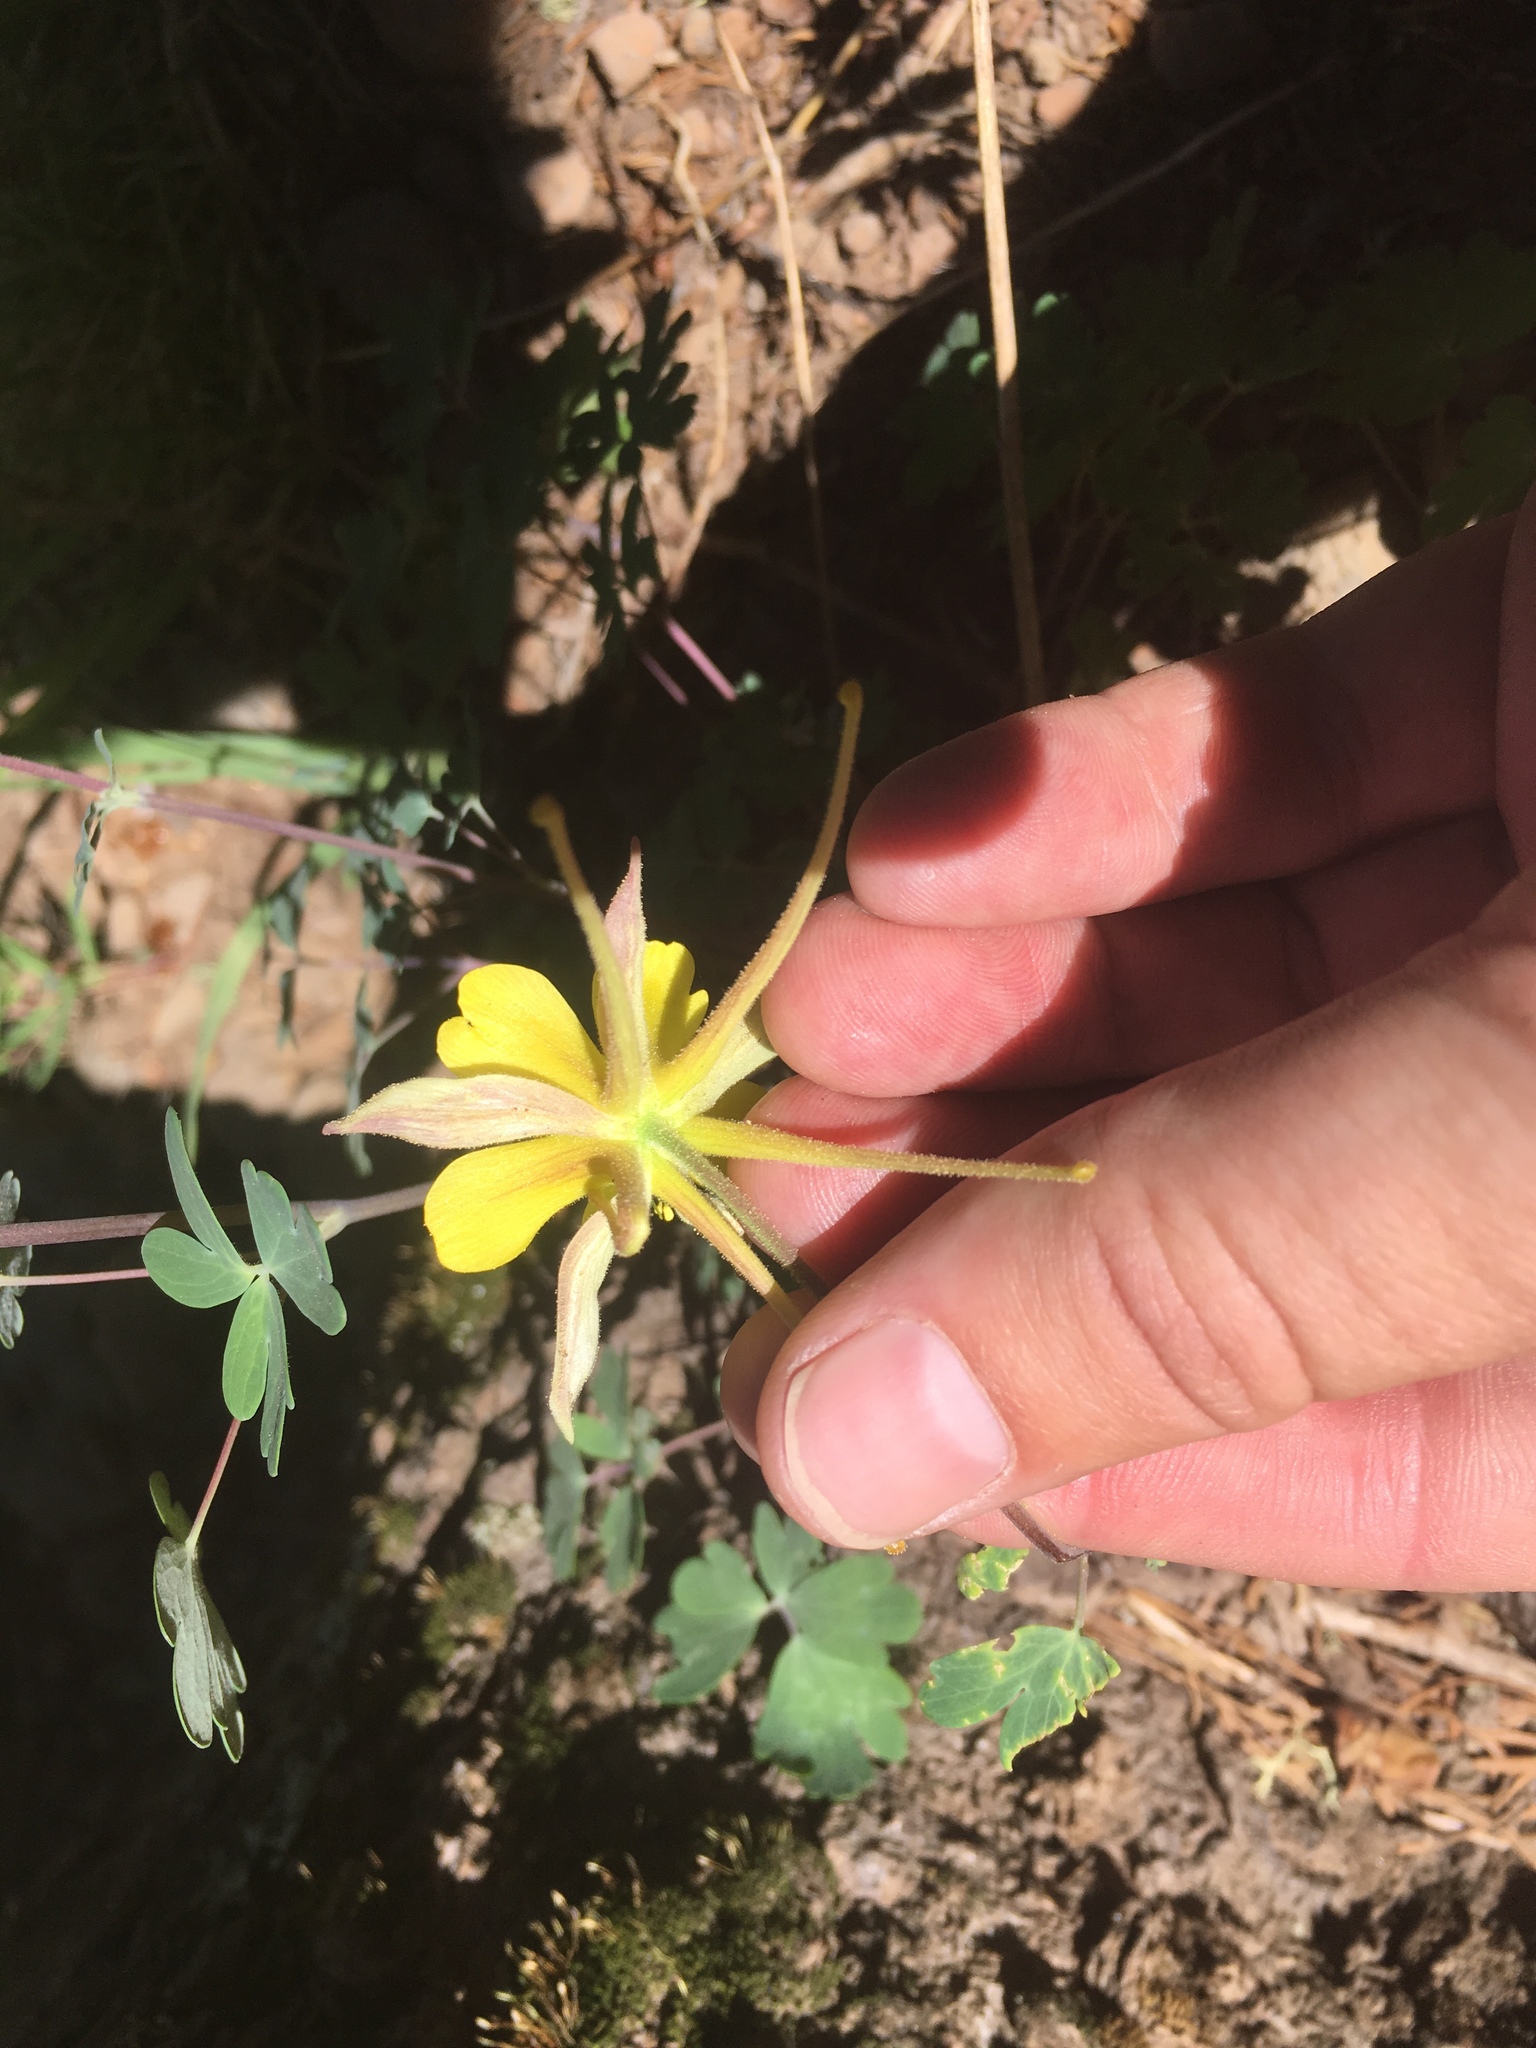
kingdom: Plantae
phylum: Tracheophyta
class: Magnoliopsida
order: Ranunculales
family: Ranunculaceae
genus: Aquilegia
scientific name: Aquilegia chrysantha
